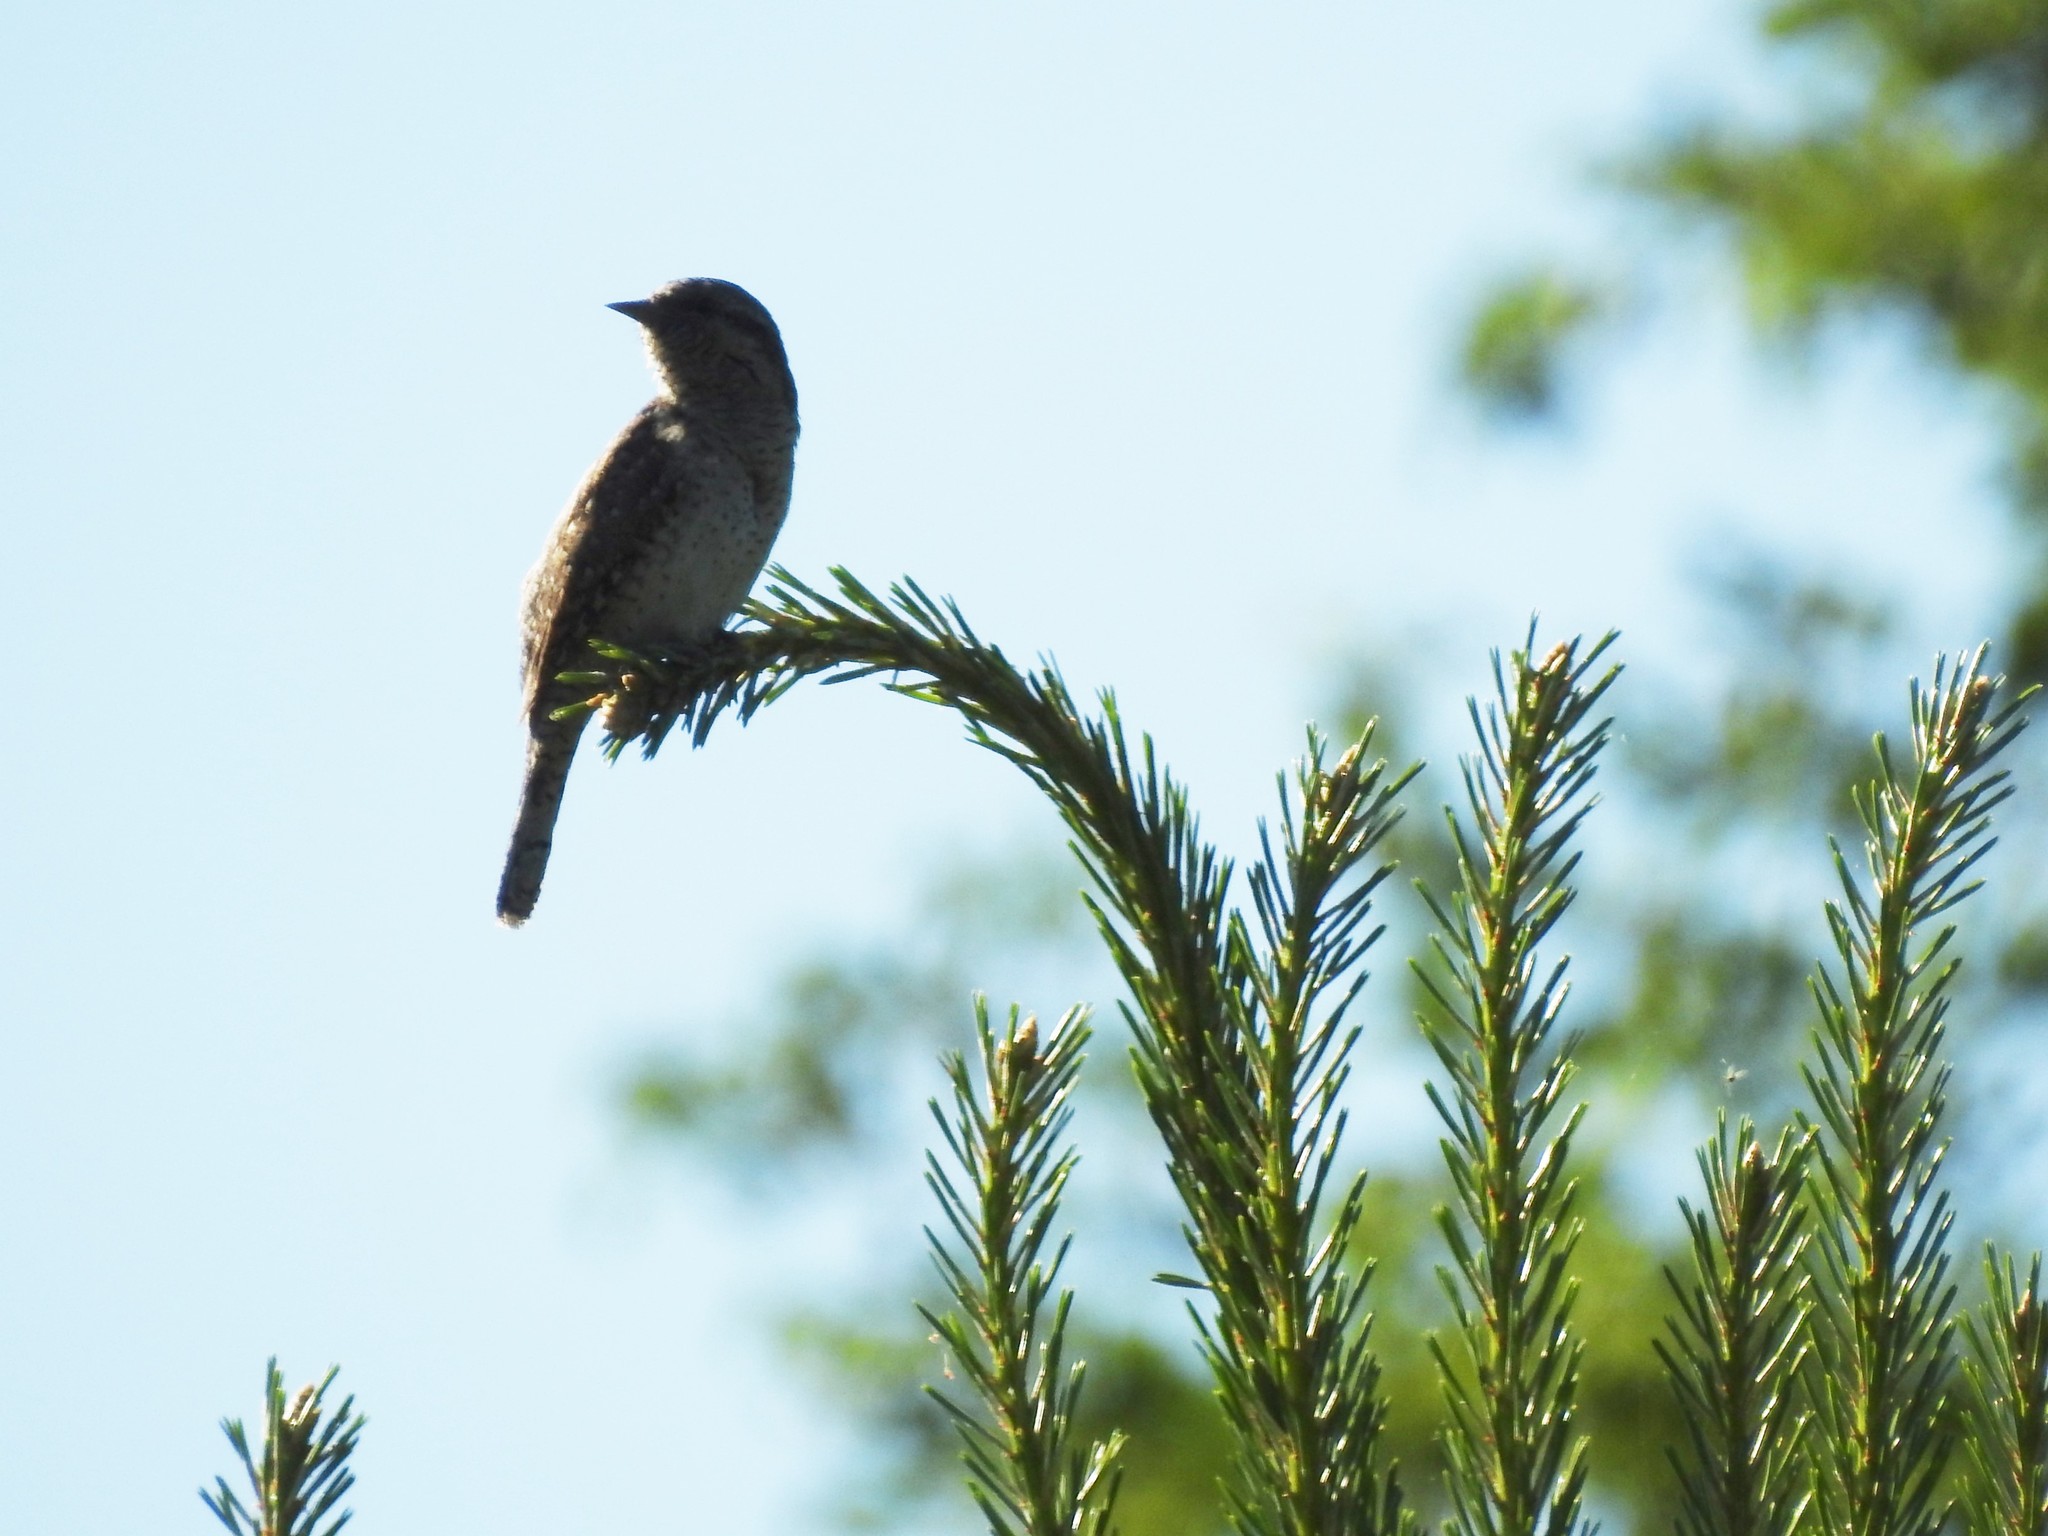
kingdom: Animalia
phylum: Chordata
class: Aves
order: Piciformes
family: Picidae
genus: Jynx
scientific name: Jynx torquilla
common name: Eurasian wryneck
